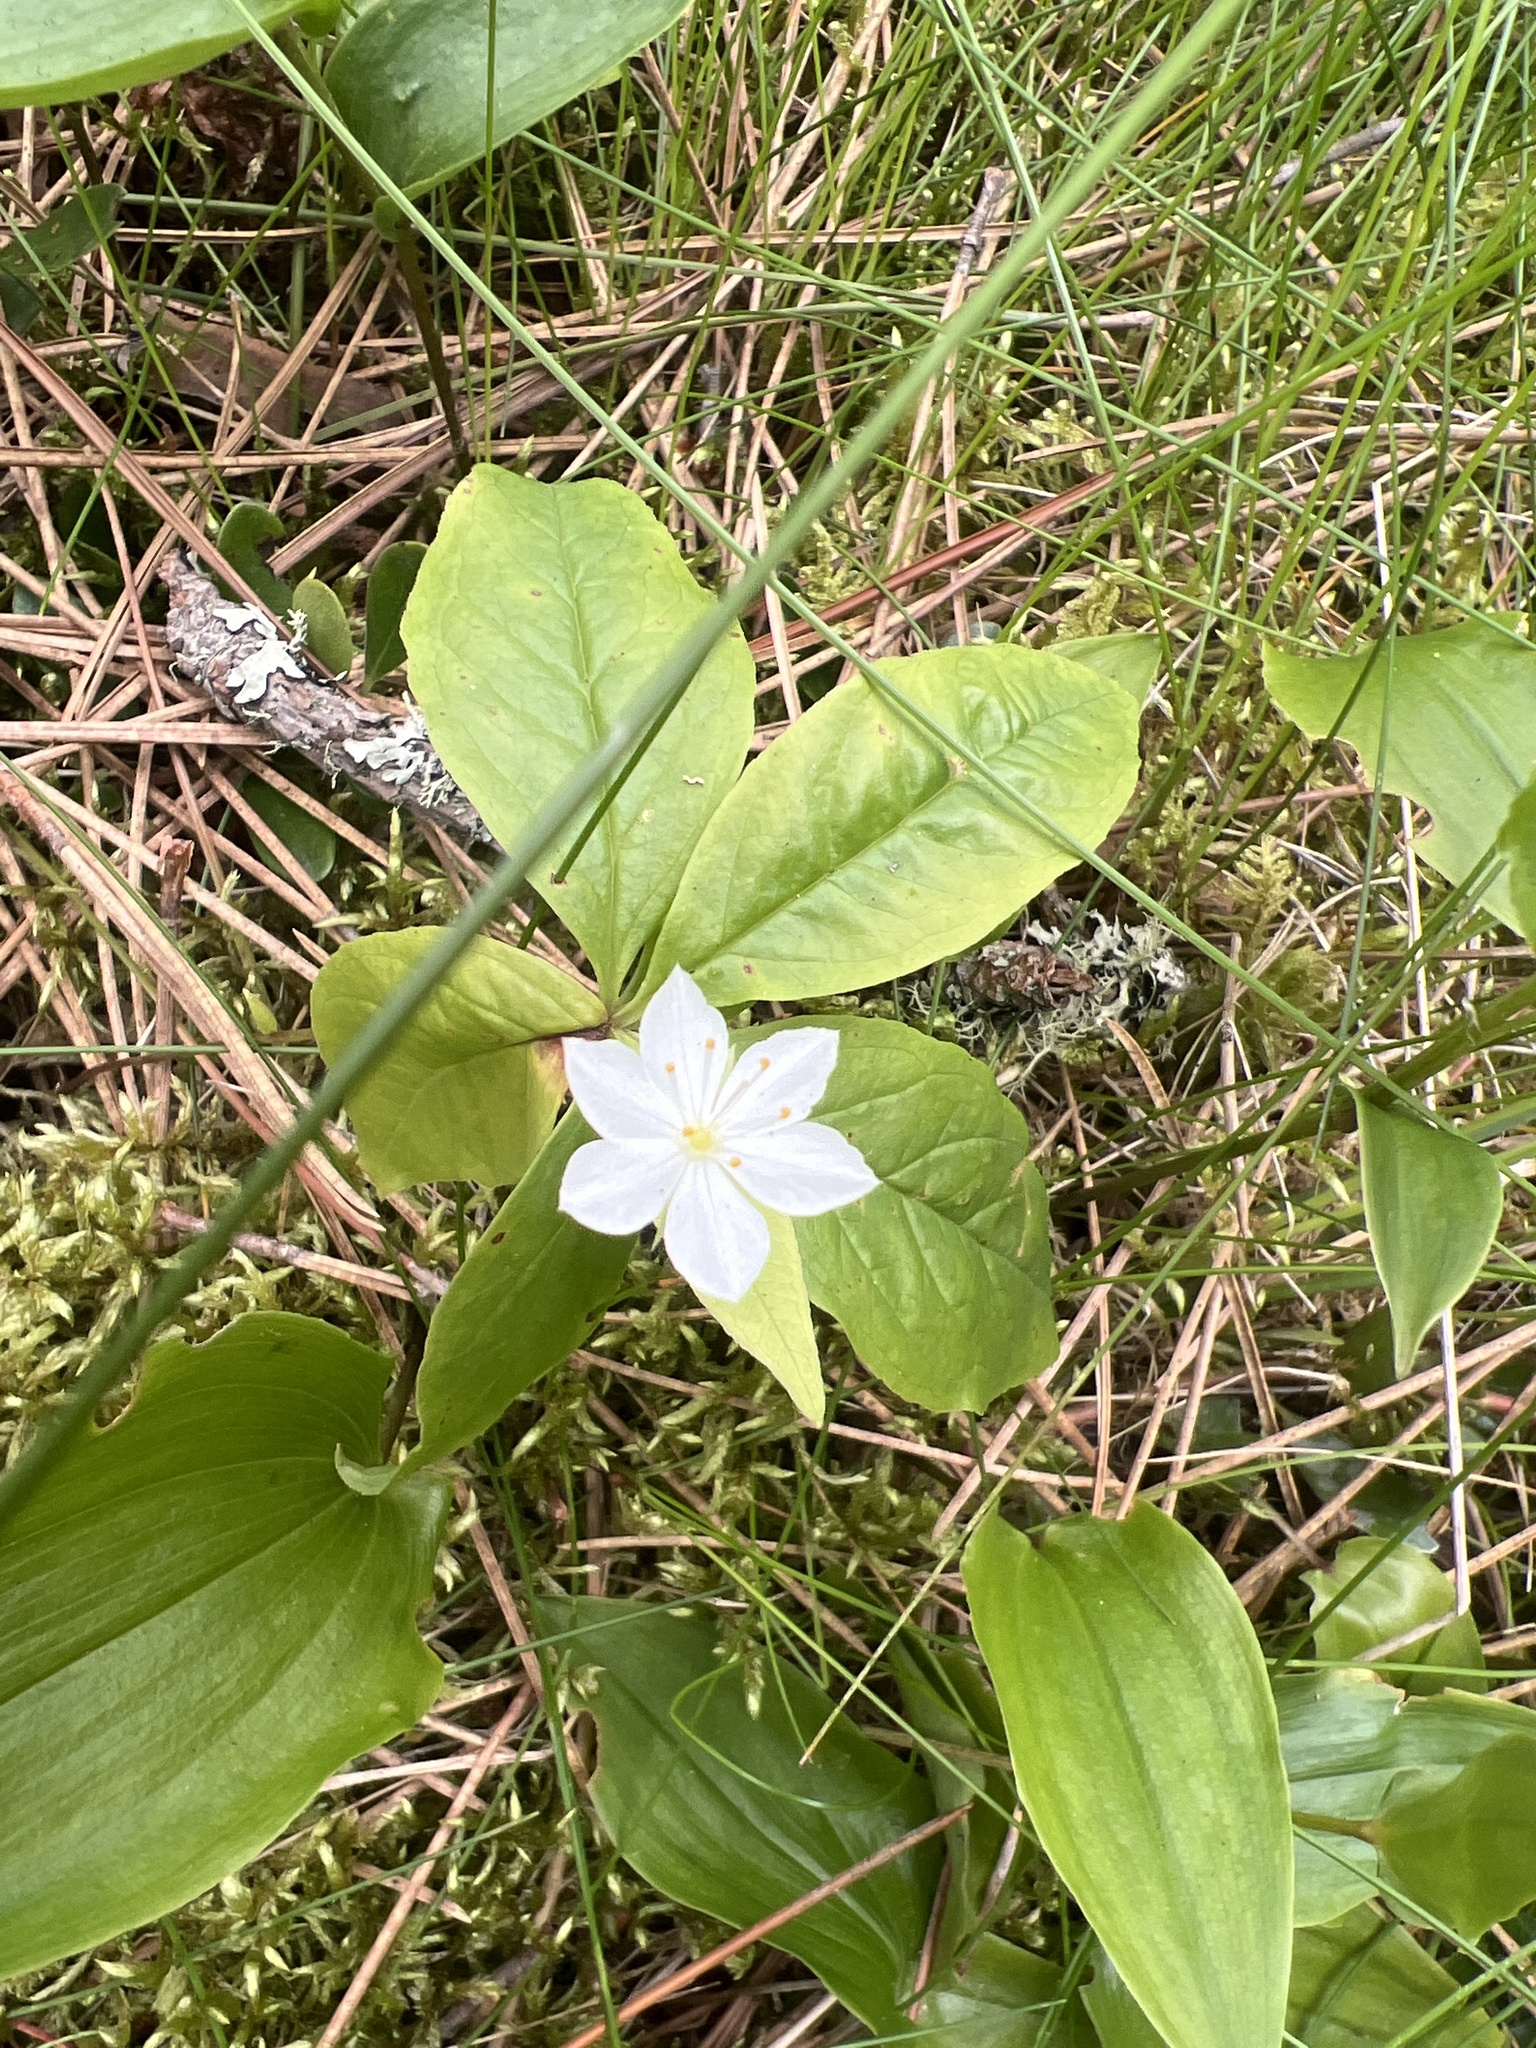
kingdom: Plantae
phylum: Tracheophyta
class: Magnoliopsida
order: Ericales
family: Primulaceae
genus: Lysimachia
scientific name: Lysimachia borealis
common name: American starflower
